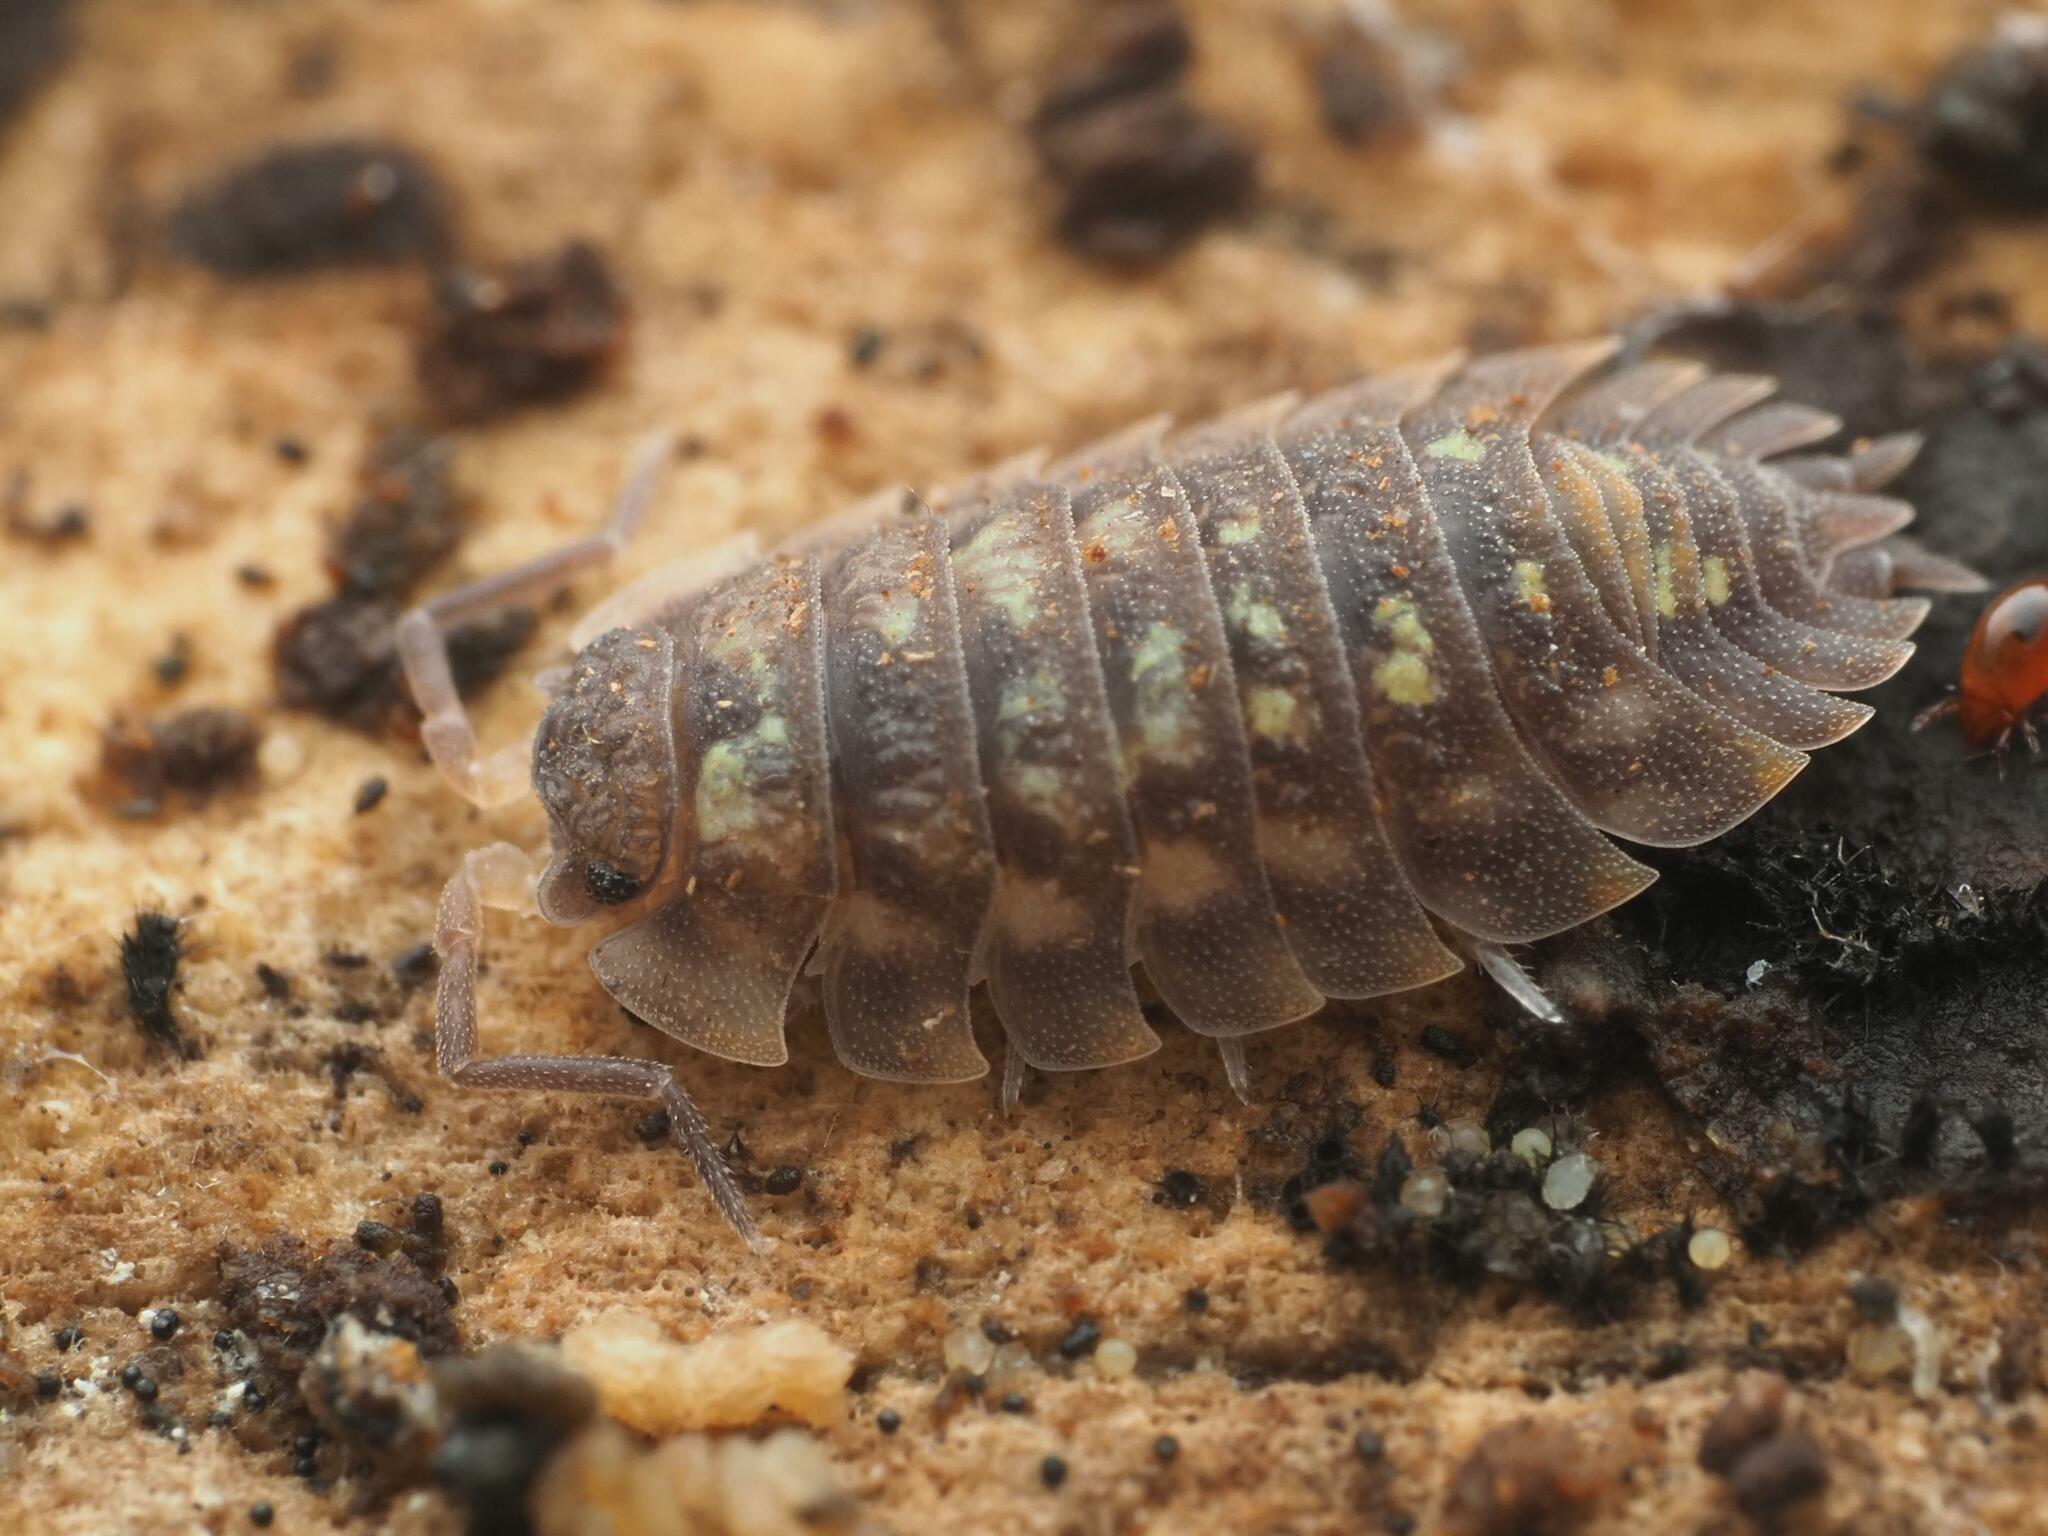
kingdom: Animalia
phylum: Arthropoda
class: Malacostraca
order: Isopoda
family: Oniscidae
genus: Oniscus
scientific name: Oniscus asellus
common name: Common shiny woodlouse
